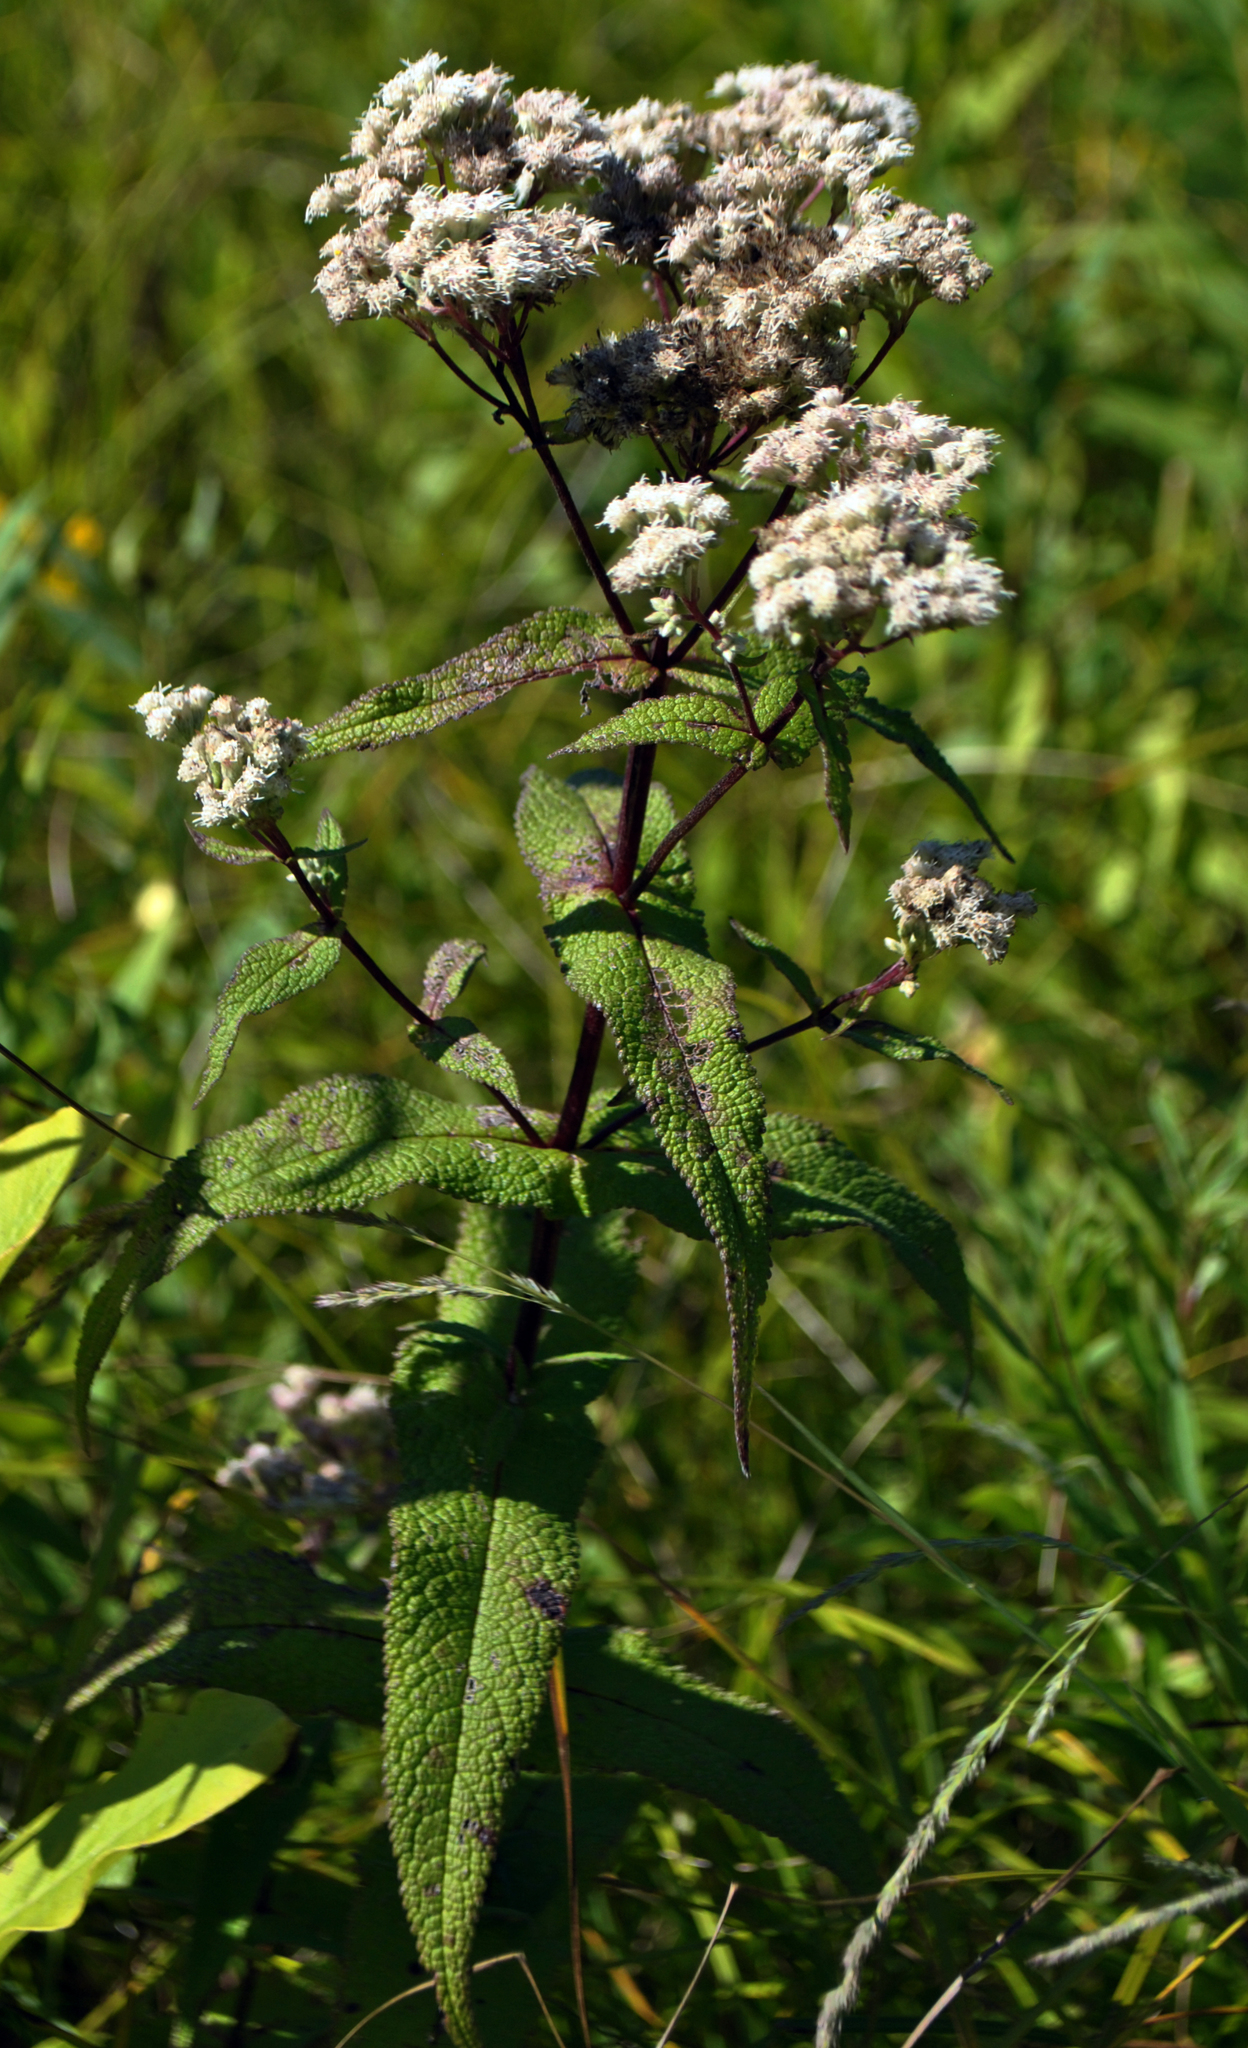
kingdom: Plantae
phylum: Tracheophyta
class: Magnoliopsida
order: Asterales
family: Asteraceae
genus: Eupatorium
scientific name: Eupatorium perfoliatum
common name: Boneset
